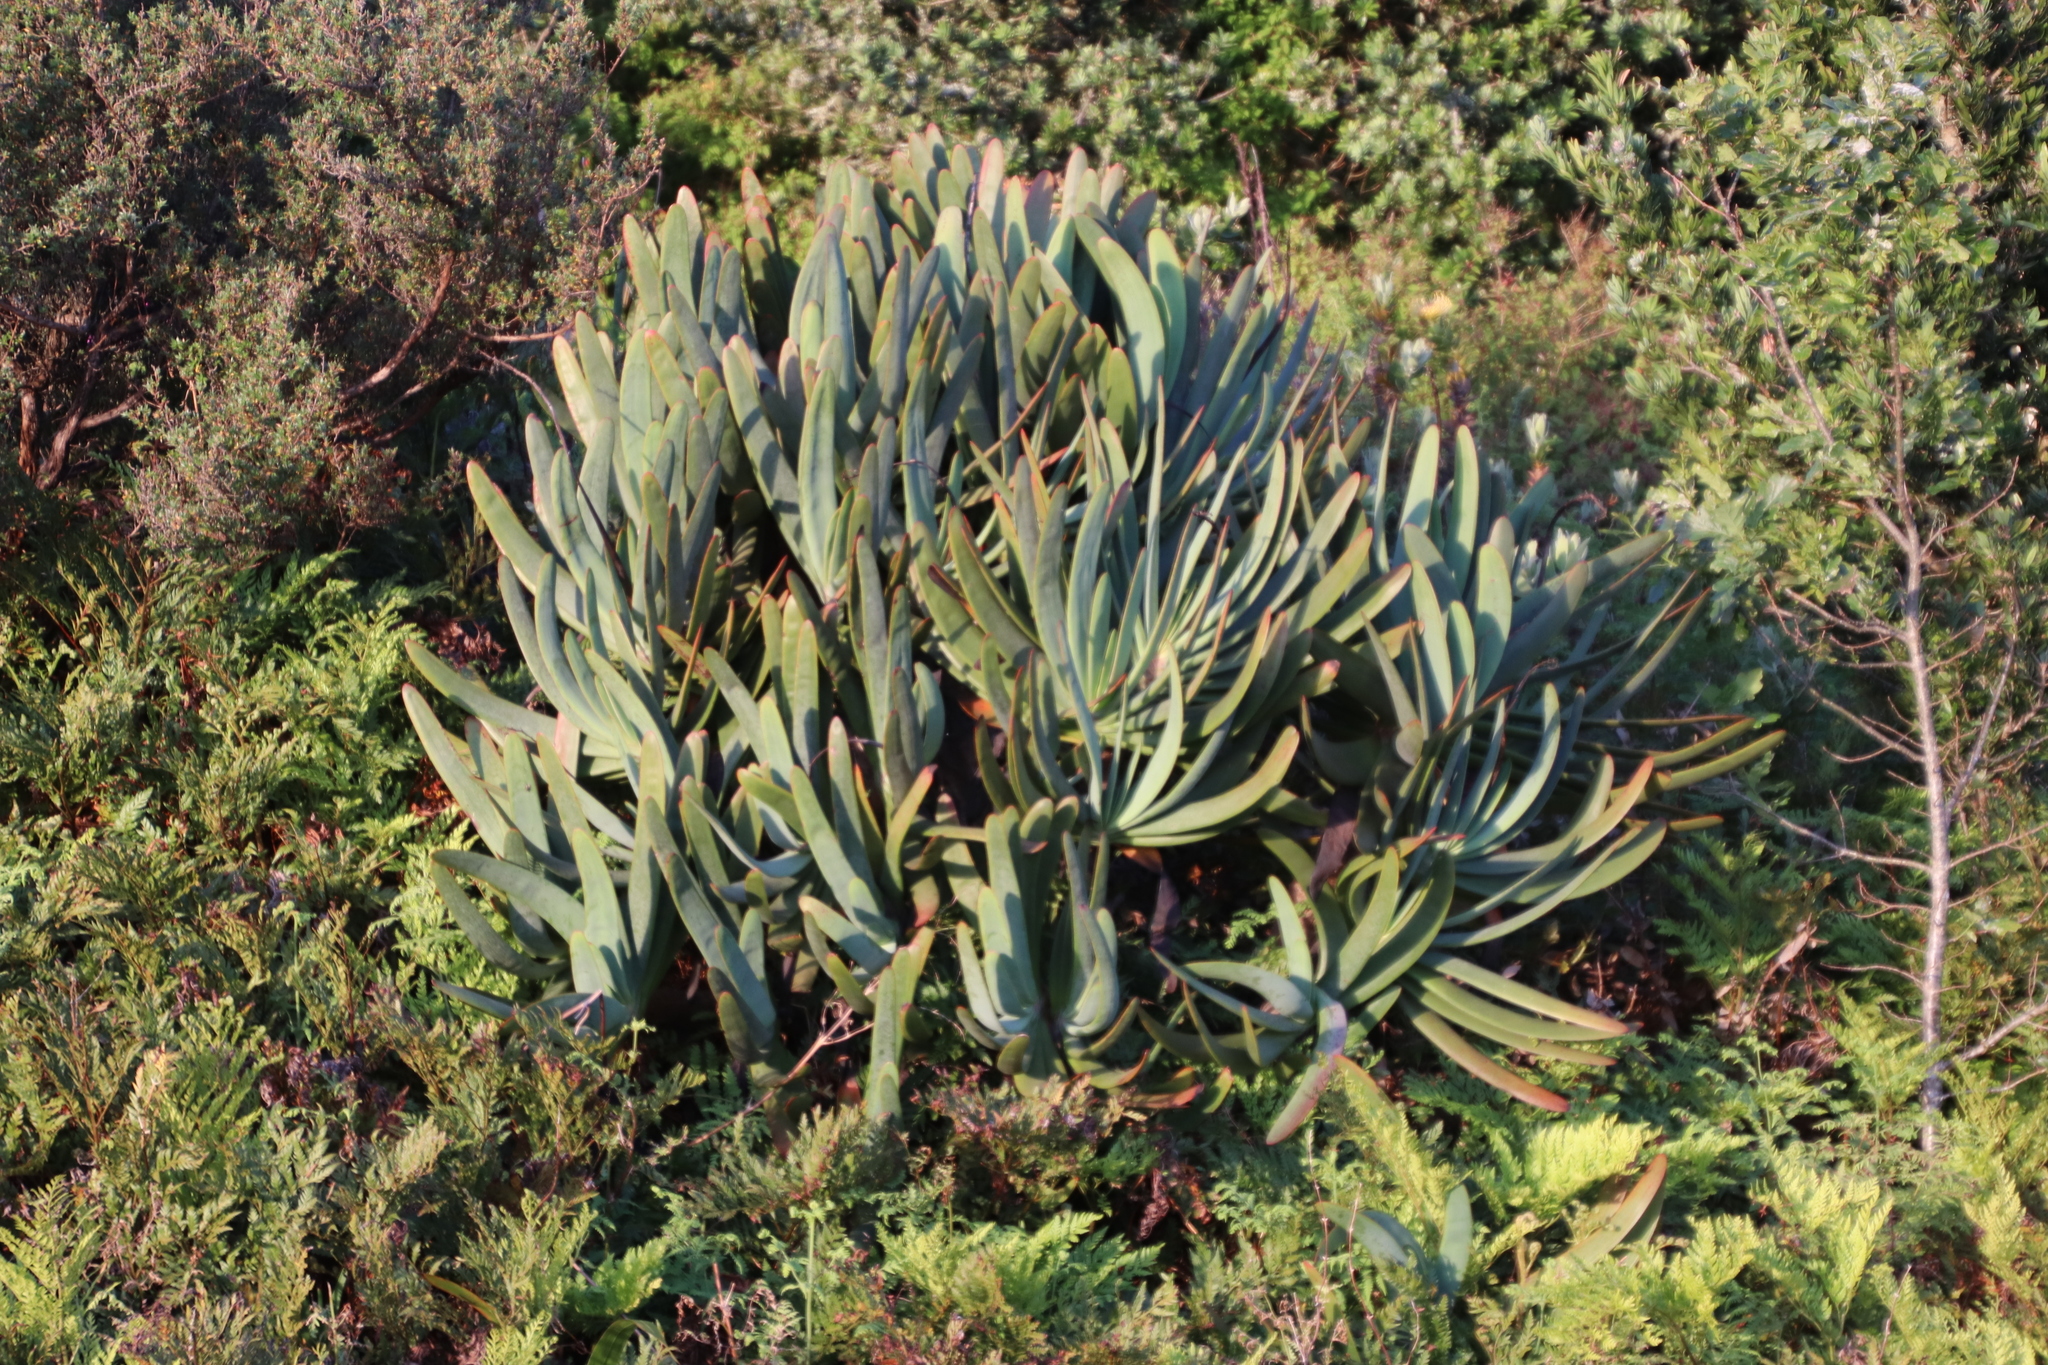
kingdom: Plantae
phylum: Tracheophyta
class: Liliopsida
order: Asparagales
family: Asphodelaceae
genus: Kumara
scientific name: Kumara plicatilis
